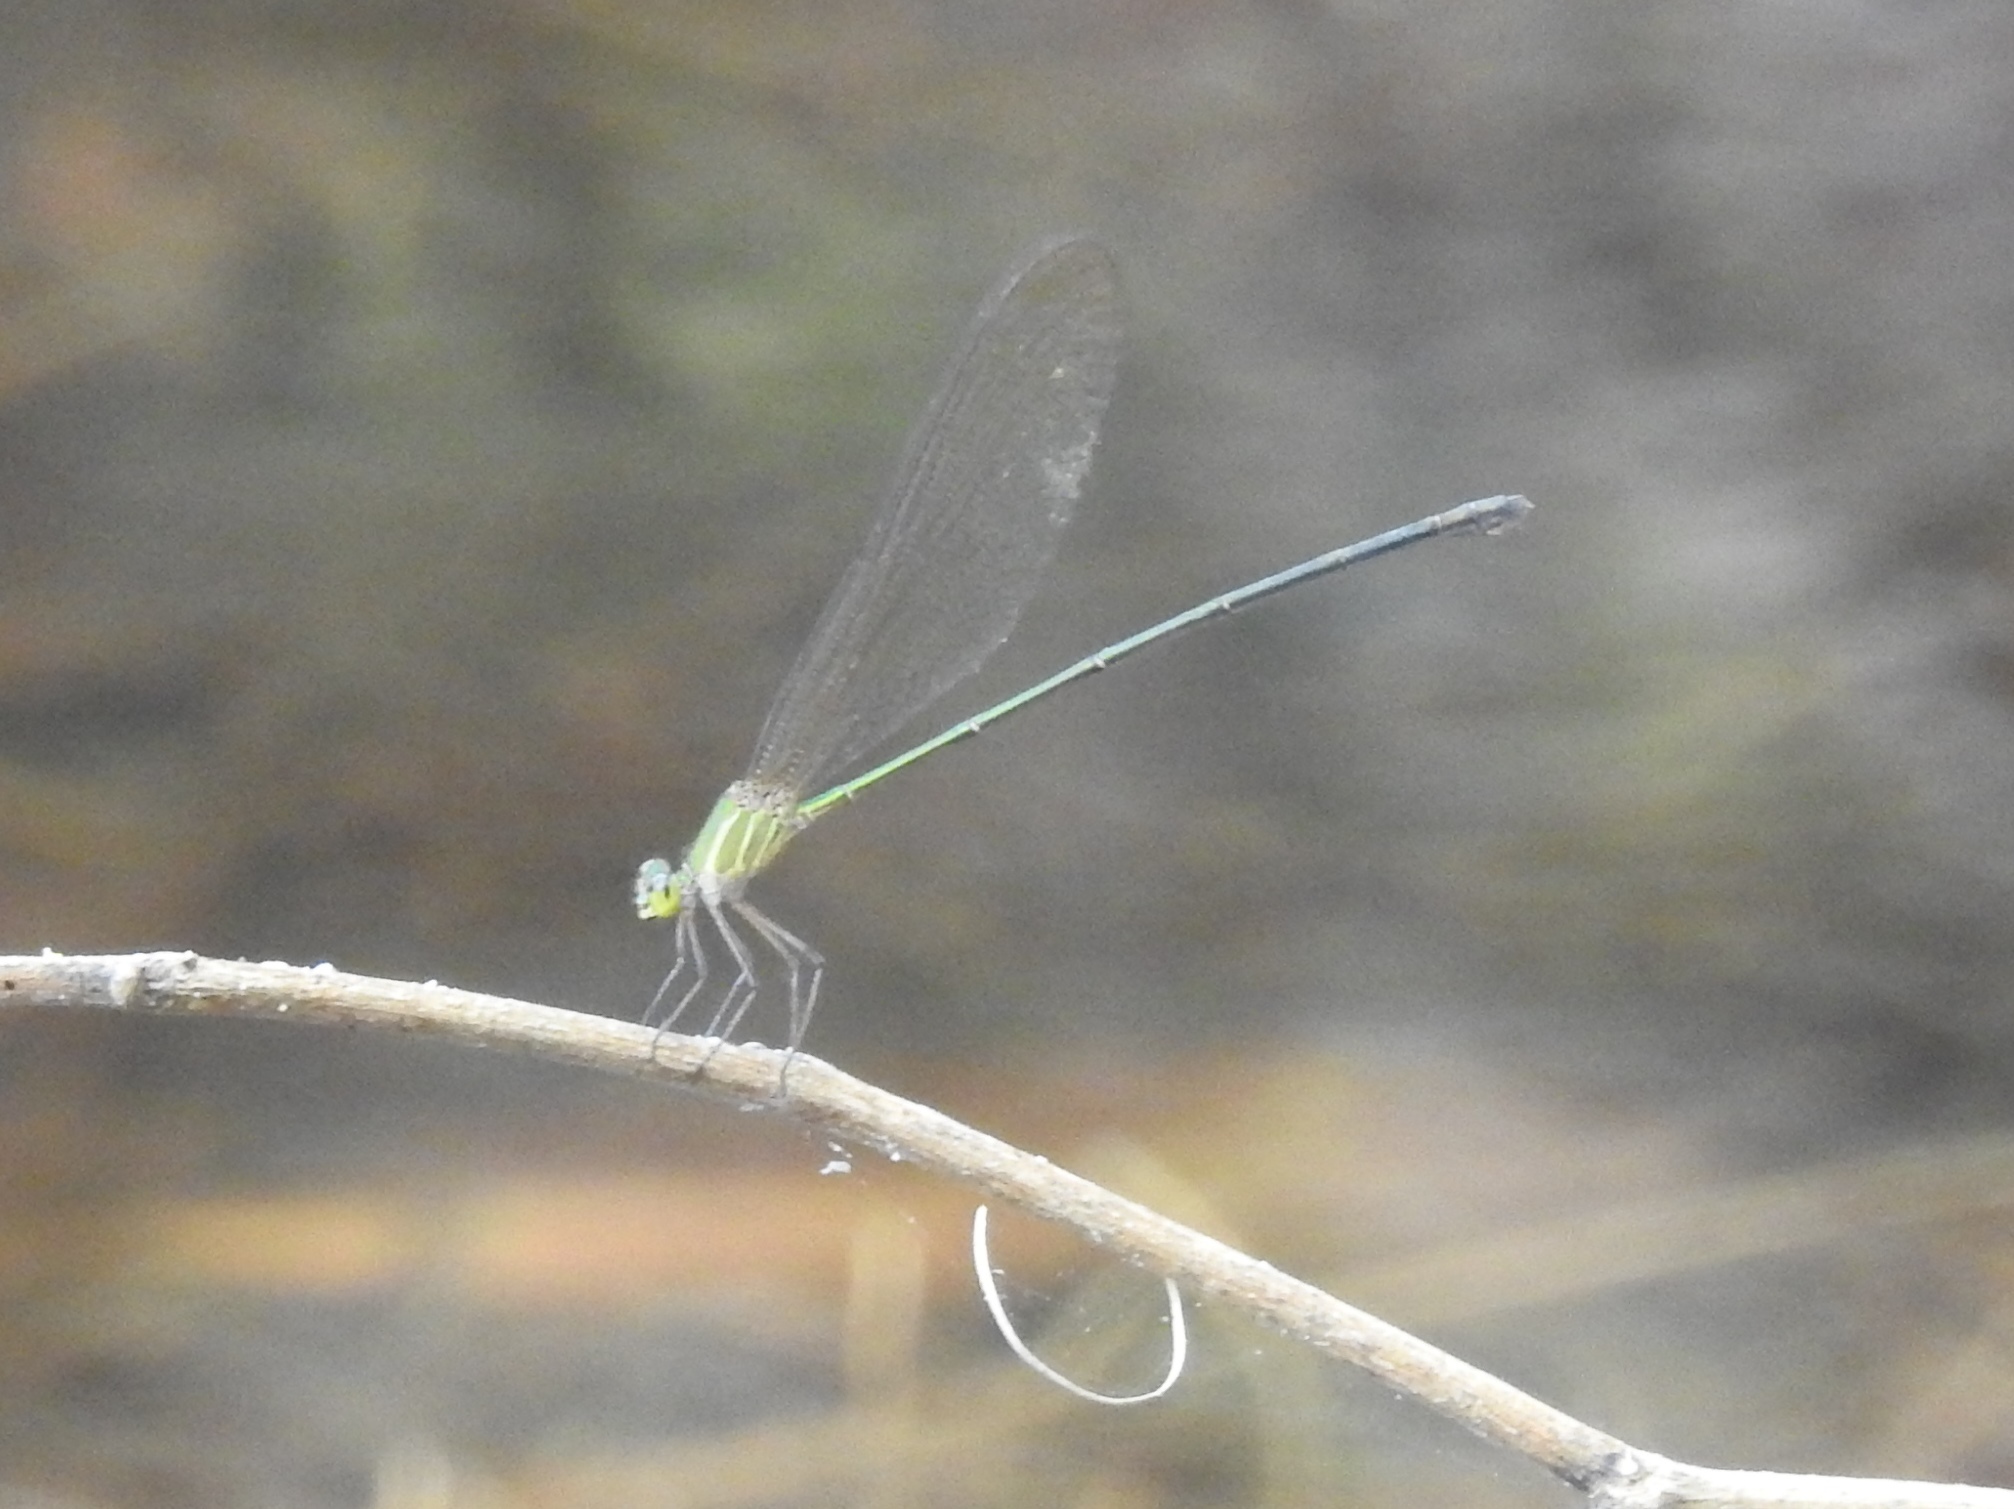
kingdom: Animalia
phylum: Arthropoda
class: Insecta
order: Odonata
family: Calopterygidae
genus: Vestalis
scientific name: Vestalis gracilis
